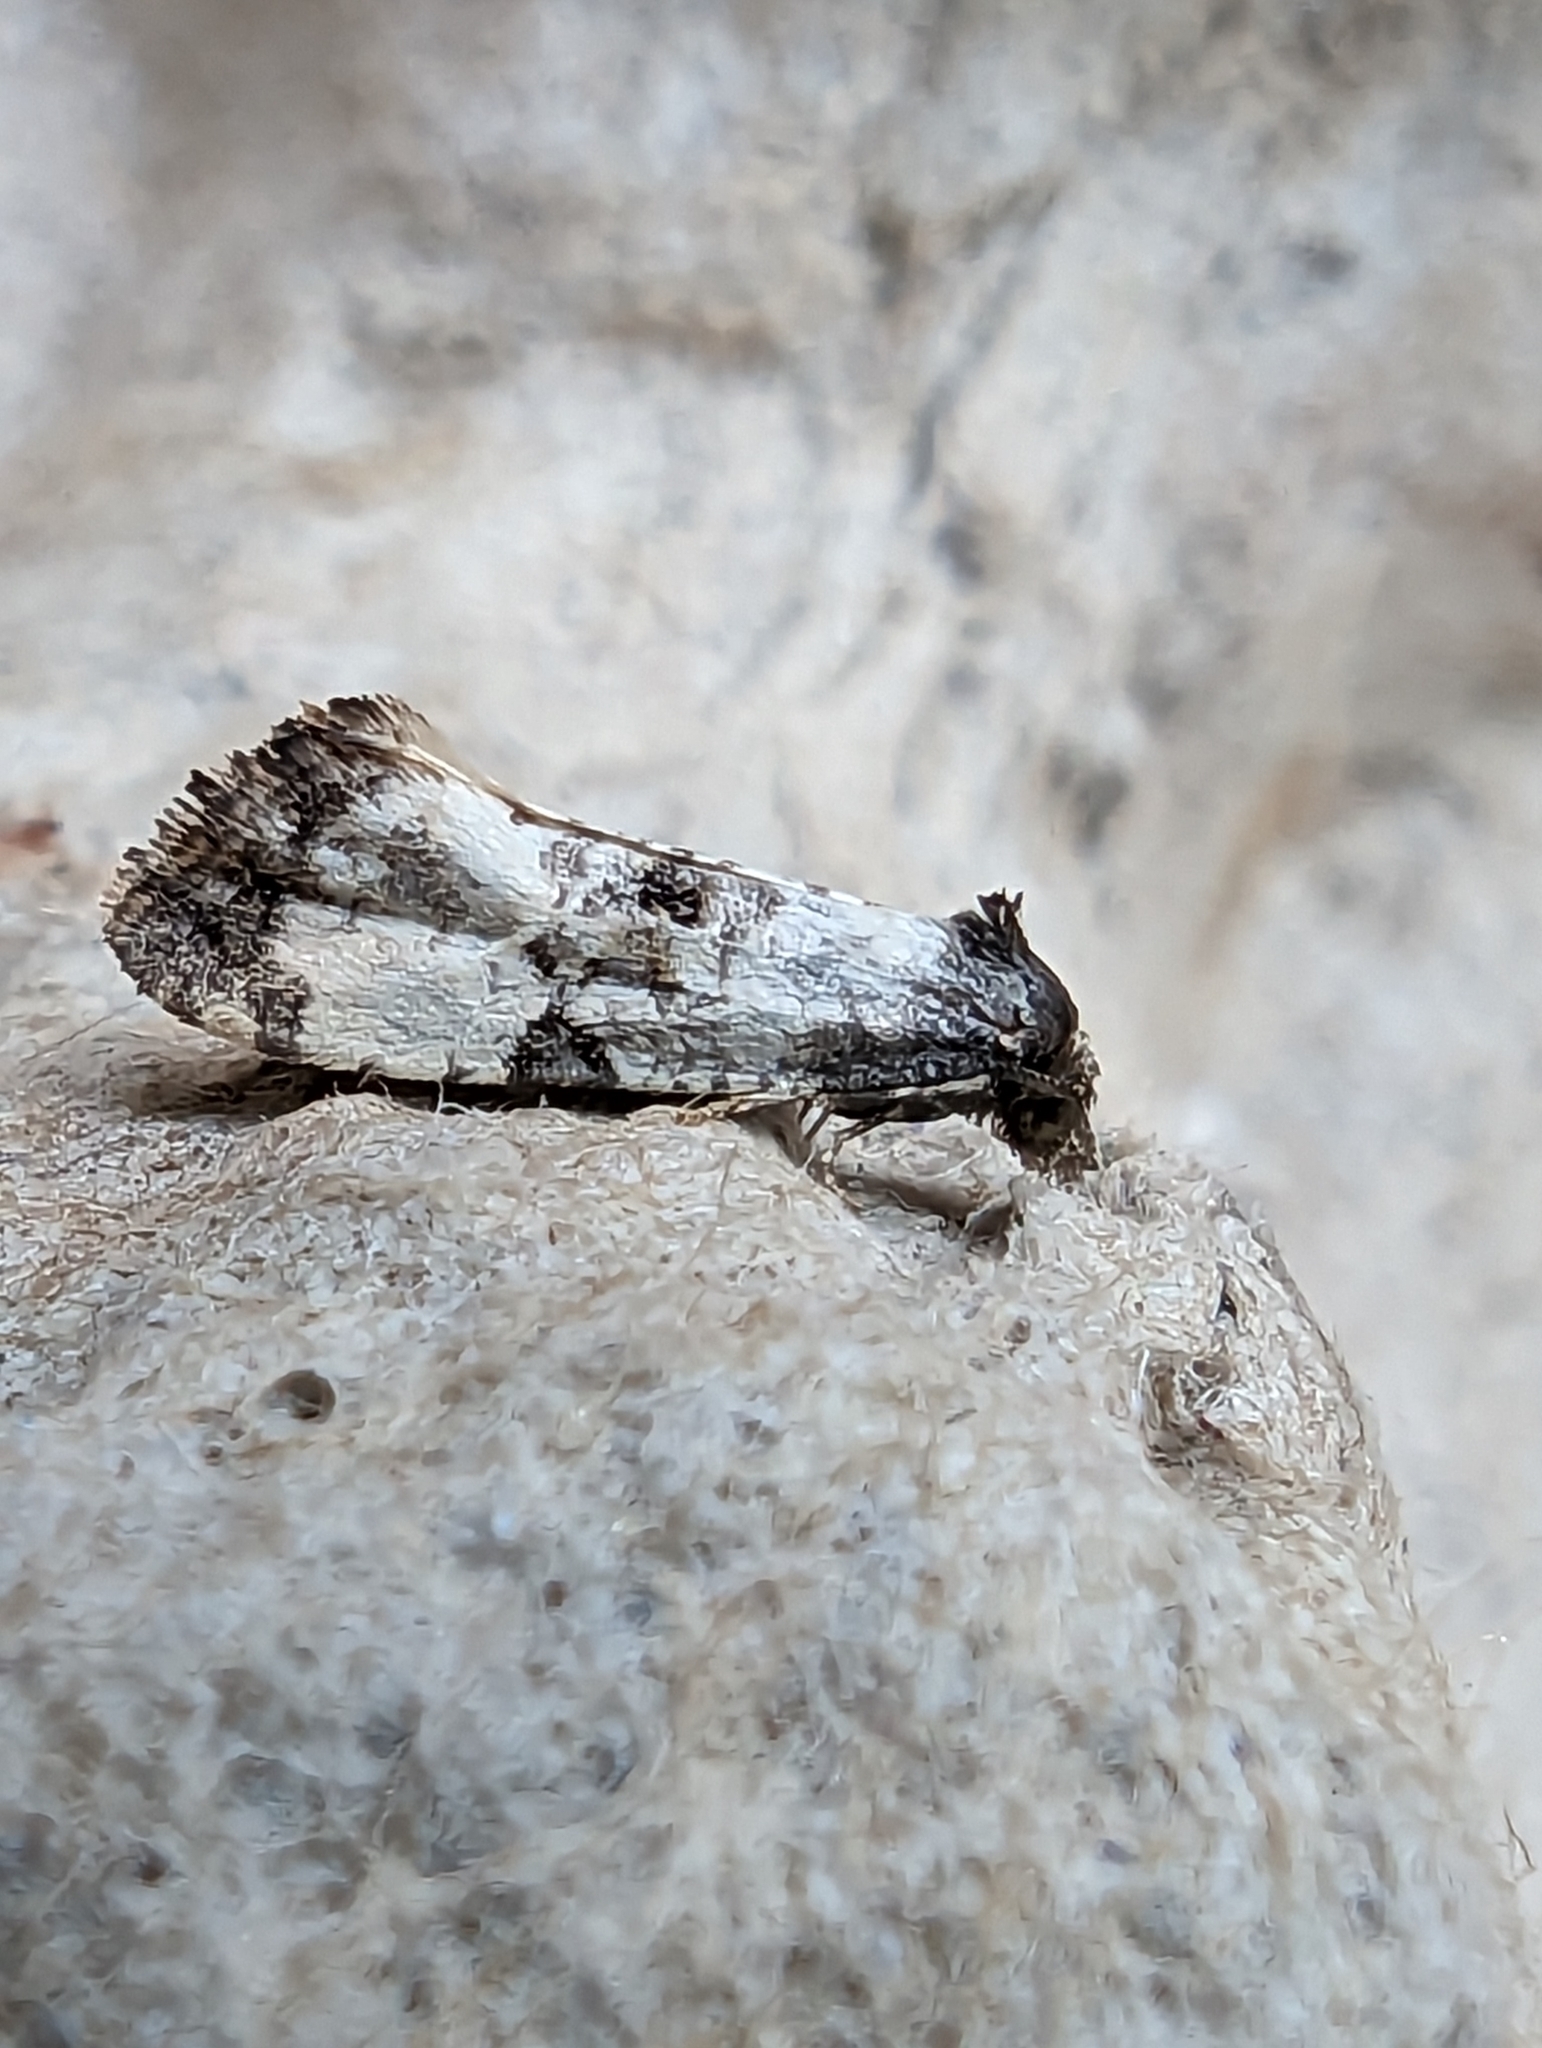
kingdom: Animalia
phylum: Arthropoda
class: Insecta
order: Lepidoptera
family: Tortricidae
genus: Cochylis
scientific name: Cochylis atricapitana
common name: Tortricid moth
